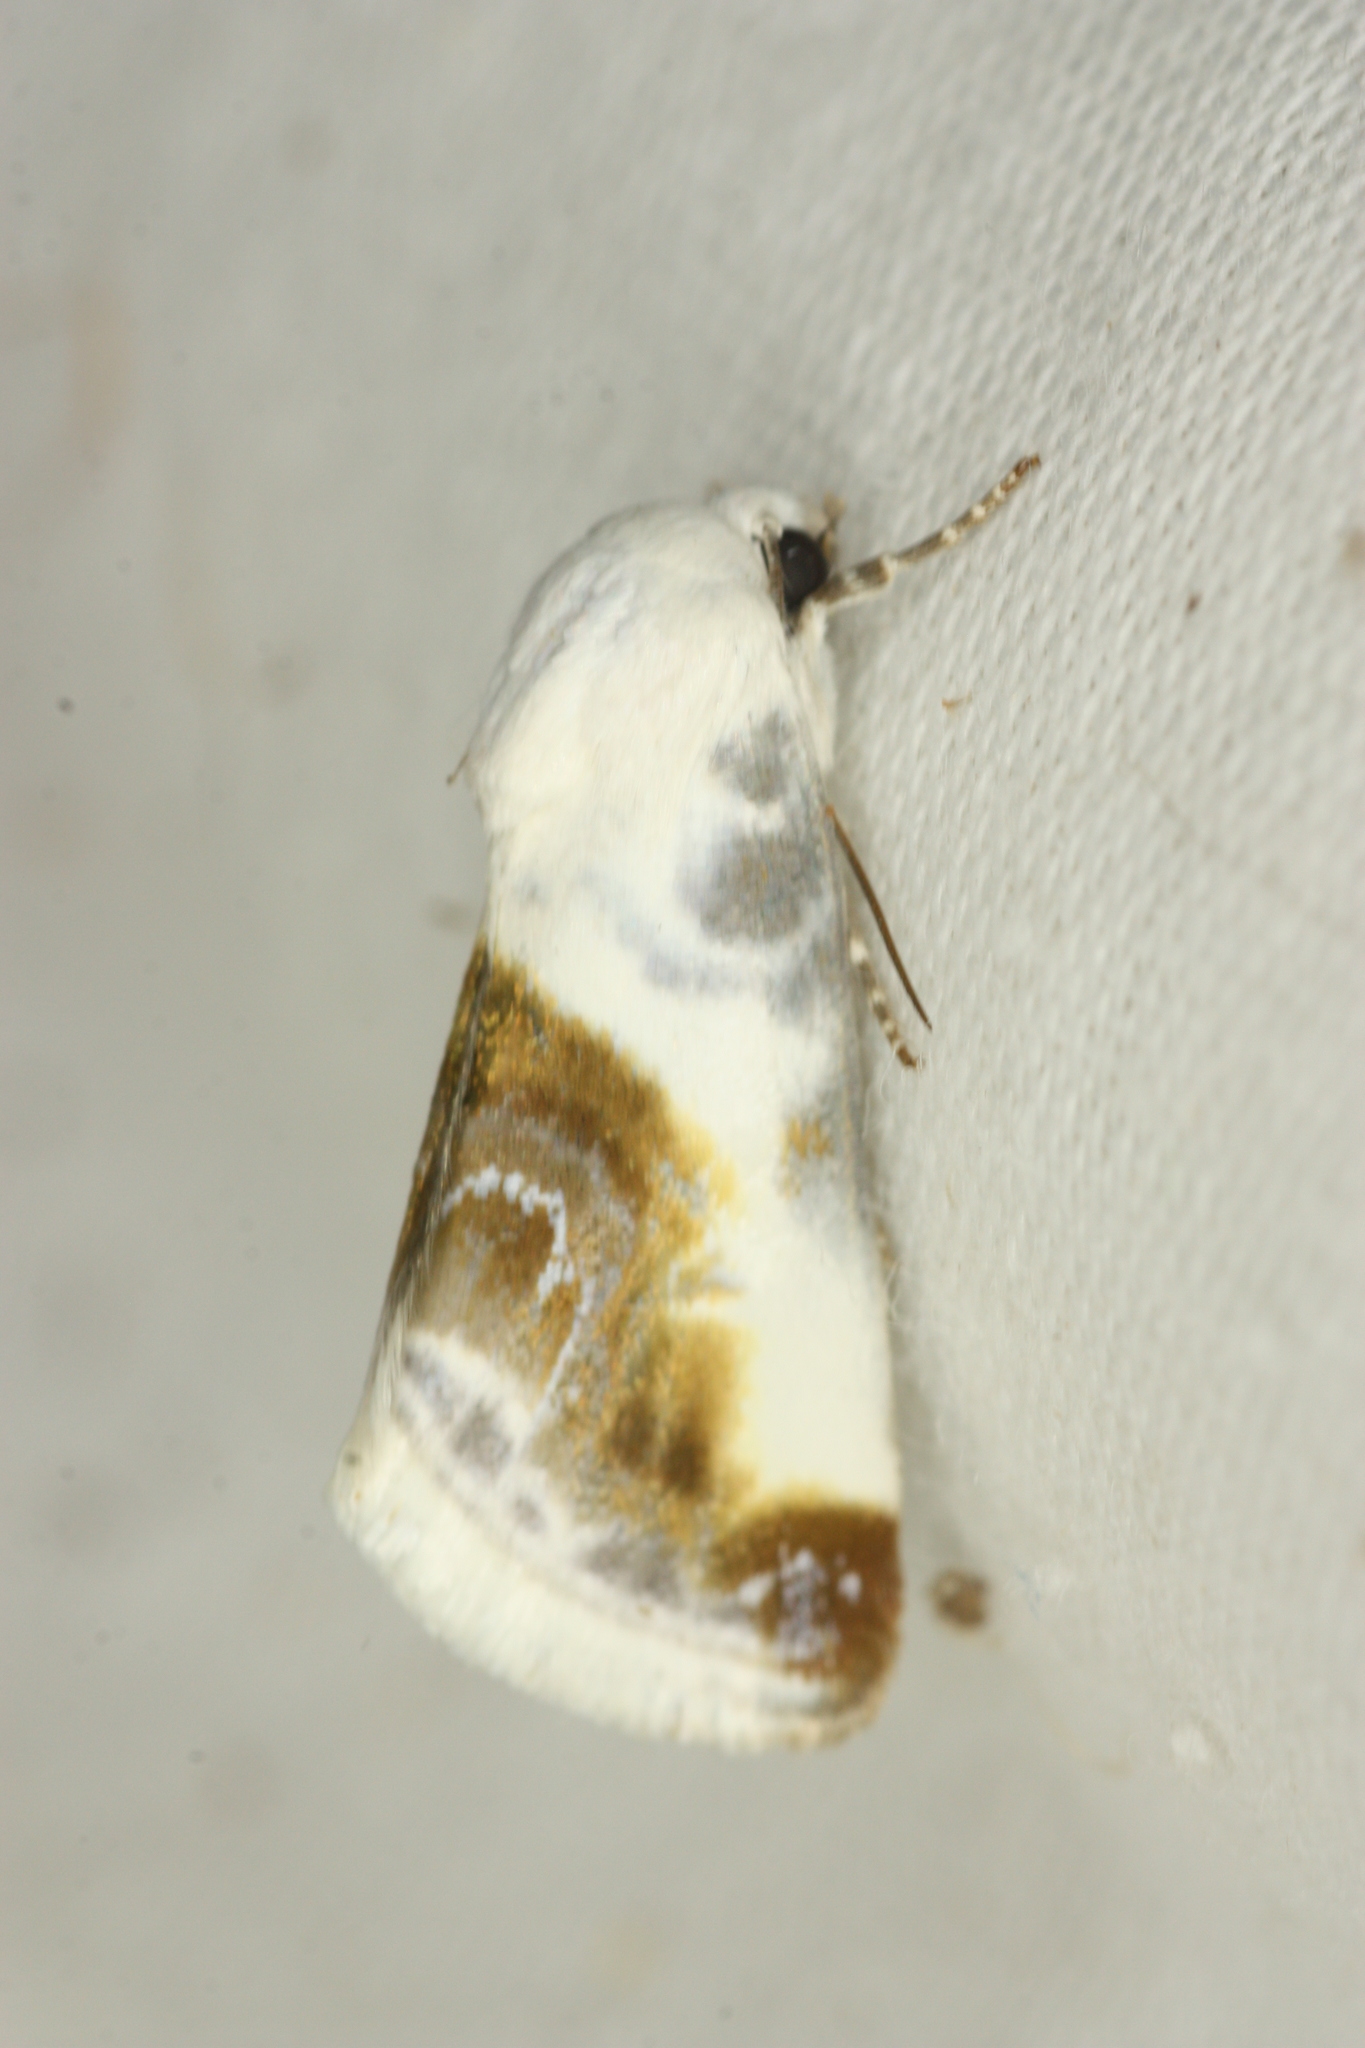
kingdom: Animalia
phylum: Arthropoda
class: Insecta
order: Lepidoptera
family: Noctuidae
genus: Acontia
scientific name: Acontia cretata
